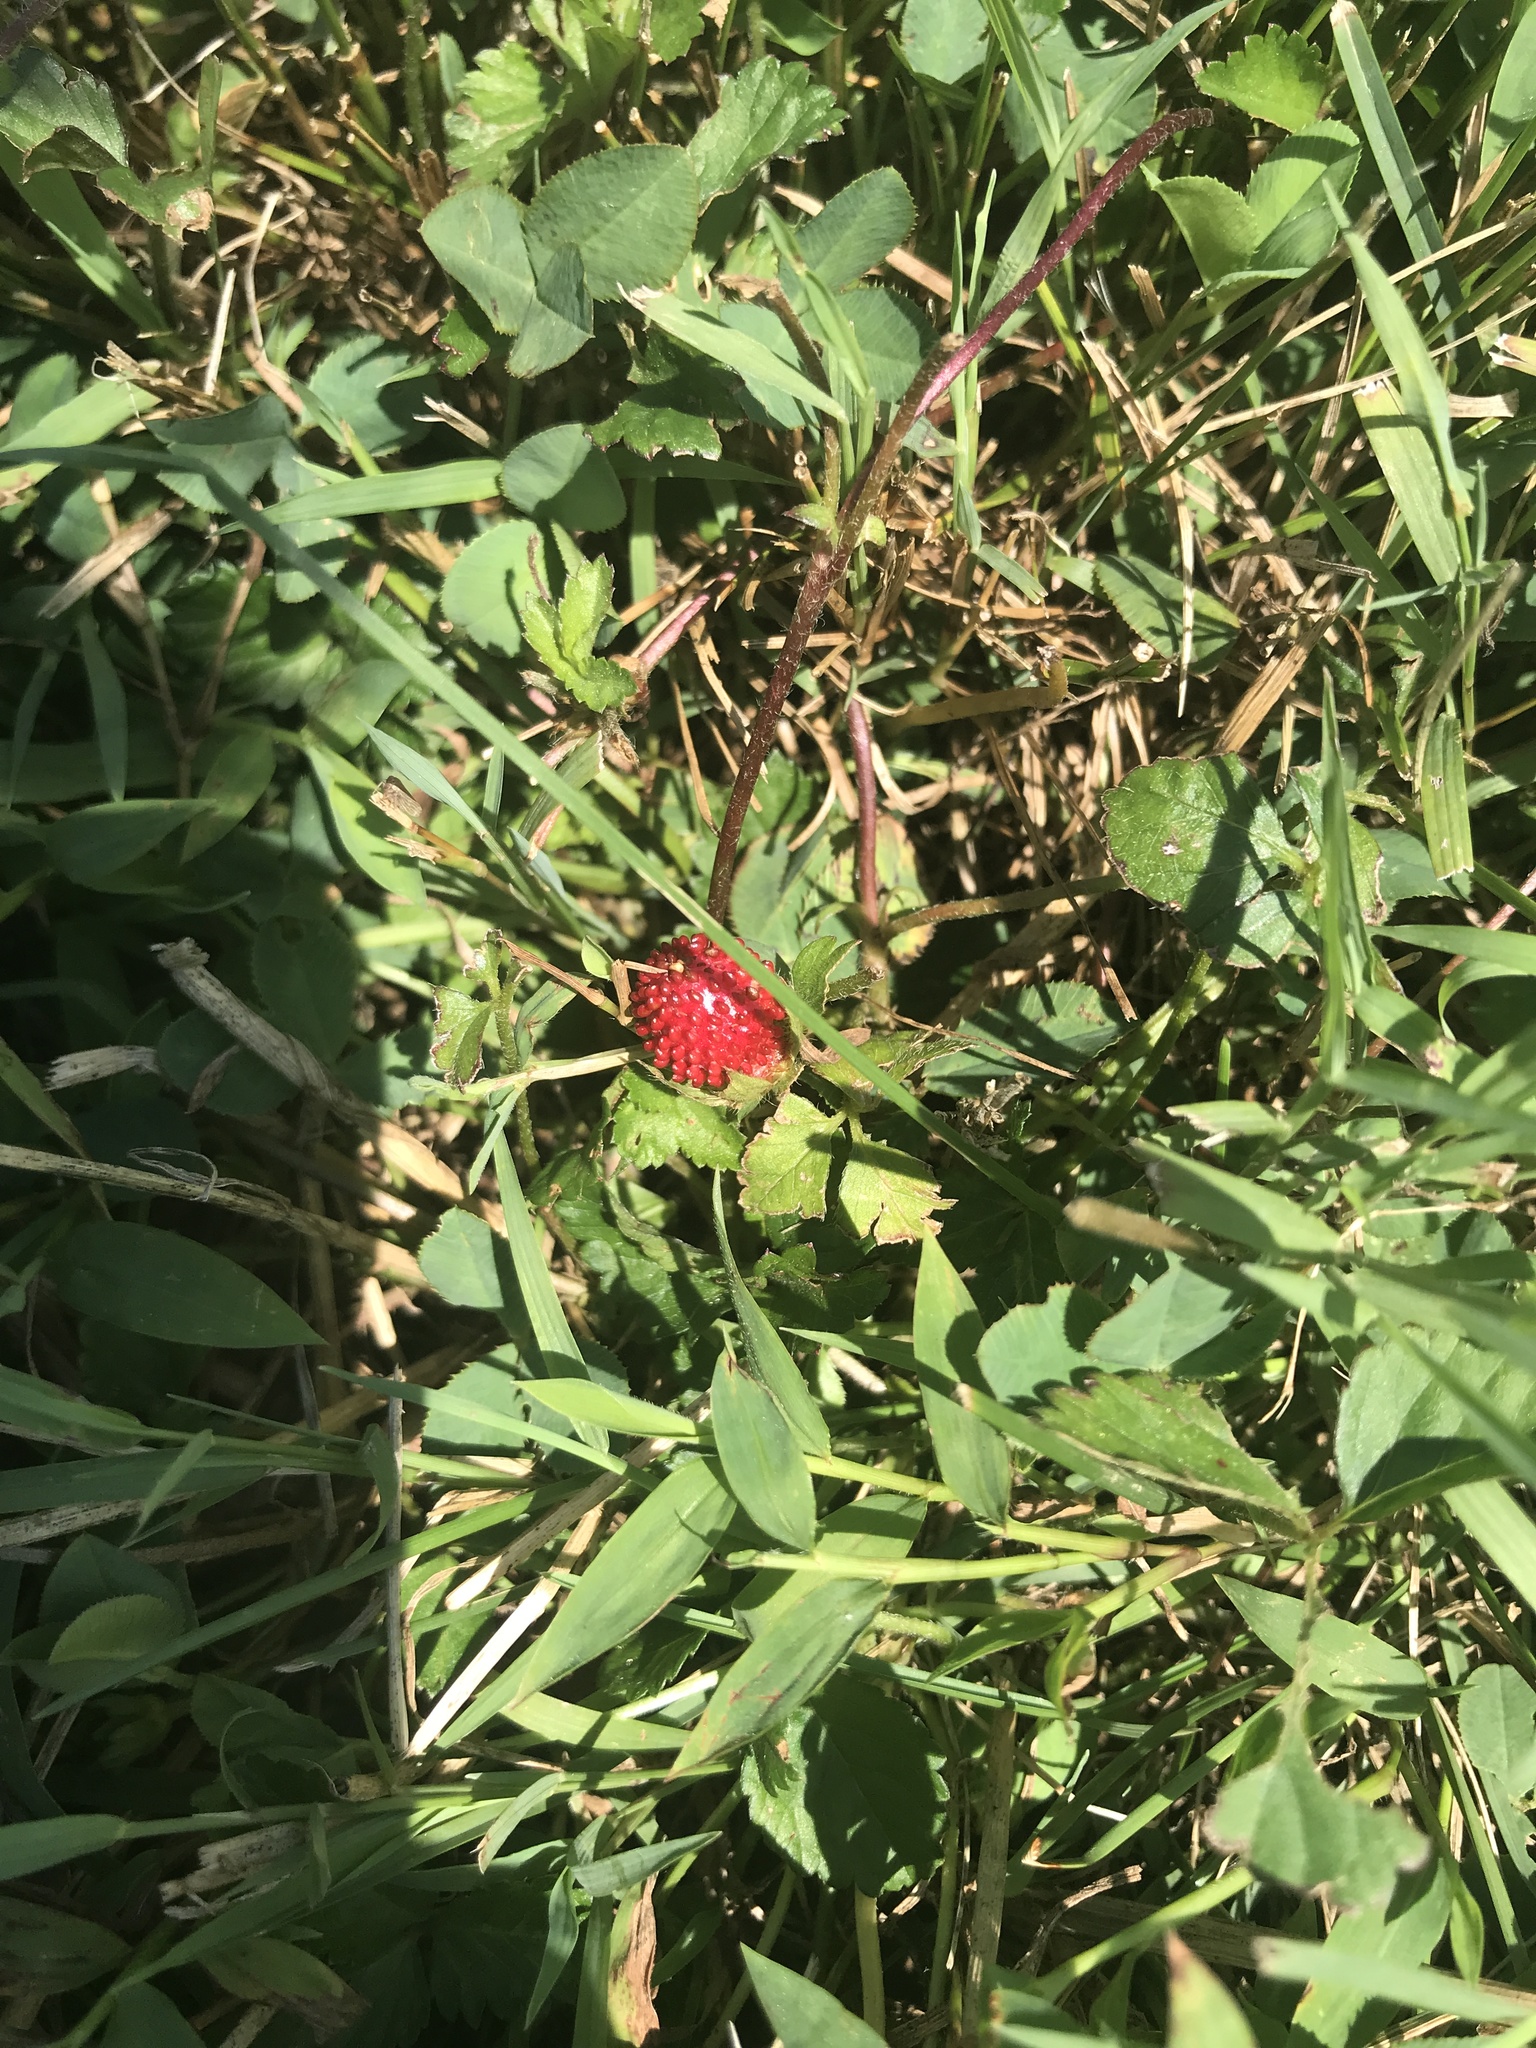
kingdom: Plantae
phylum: Tracheophyta
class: Magnoliopsida
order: Rosales
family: Rosaceae
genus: Potentilla
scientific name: Potentilla indica
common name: Yellow-flowered strawberry
